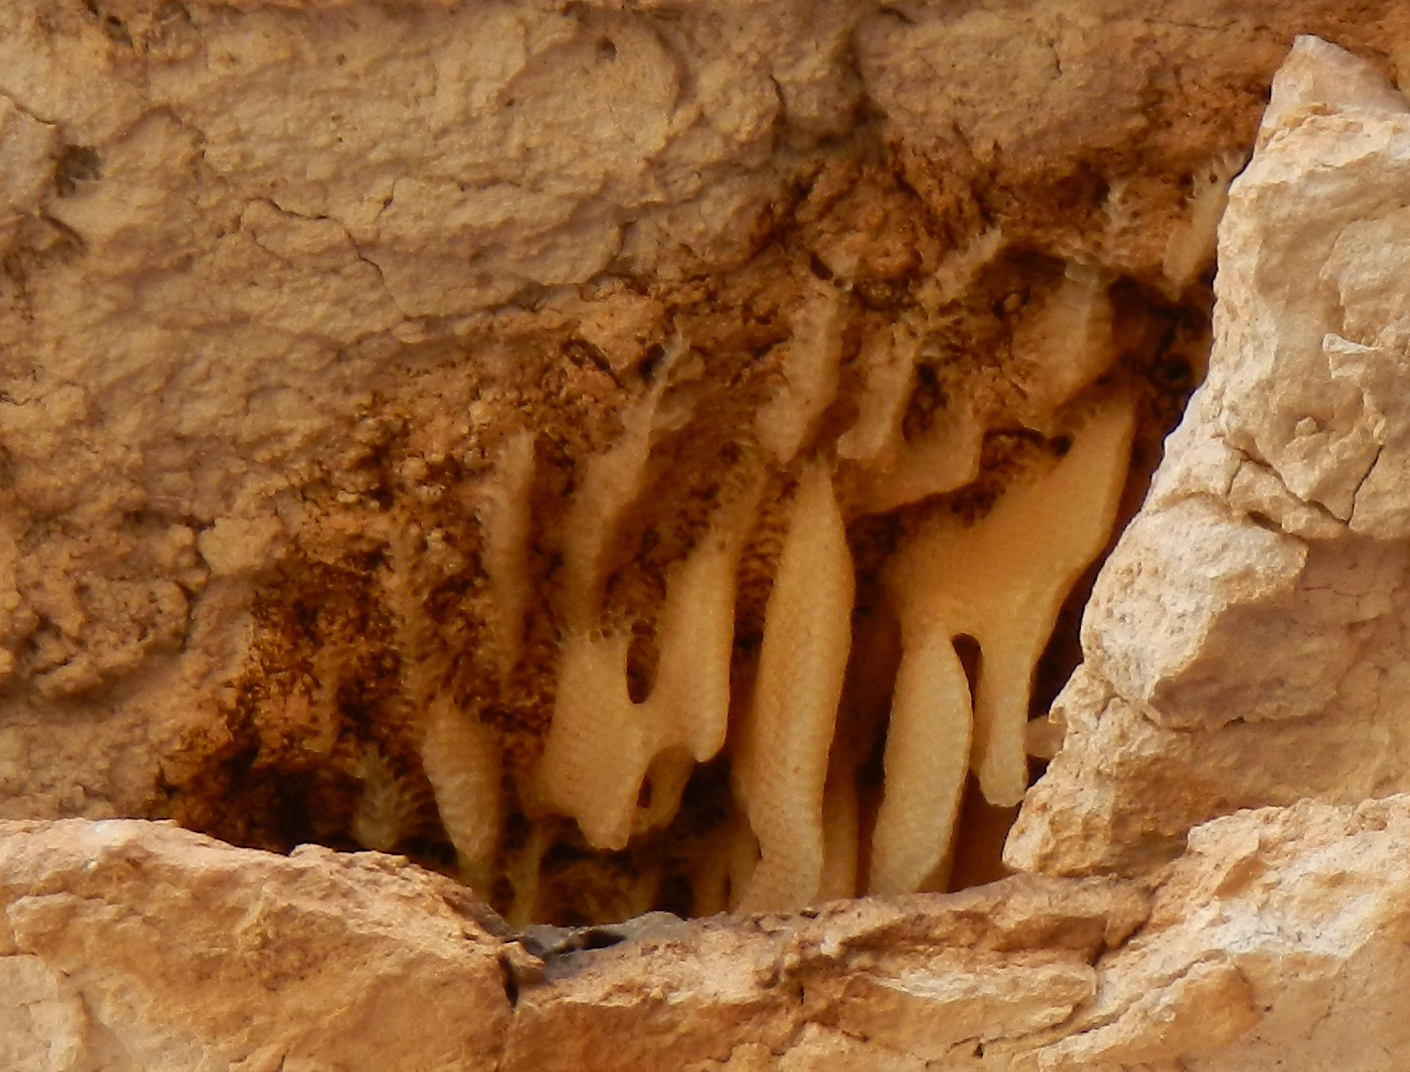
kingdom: Animalia
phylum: Arthropoda
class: Insecta
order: Hymenoptera
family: Apidae
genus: Apis
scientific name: Apis mellifera
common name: Honey bee
